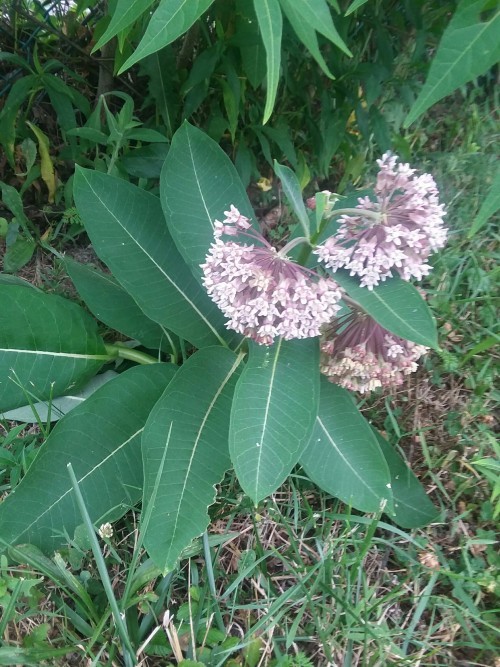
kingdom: Plantae
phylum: Tracheophyta
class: Magnoliopsida
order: Gentianales
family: Apocynaceae
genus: Asclepias
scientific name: Asclepias syriaca
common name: Common milkweed
